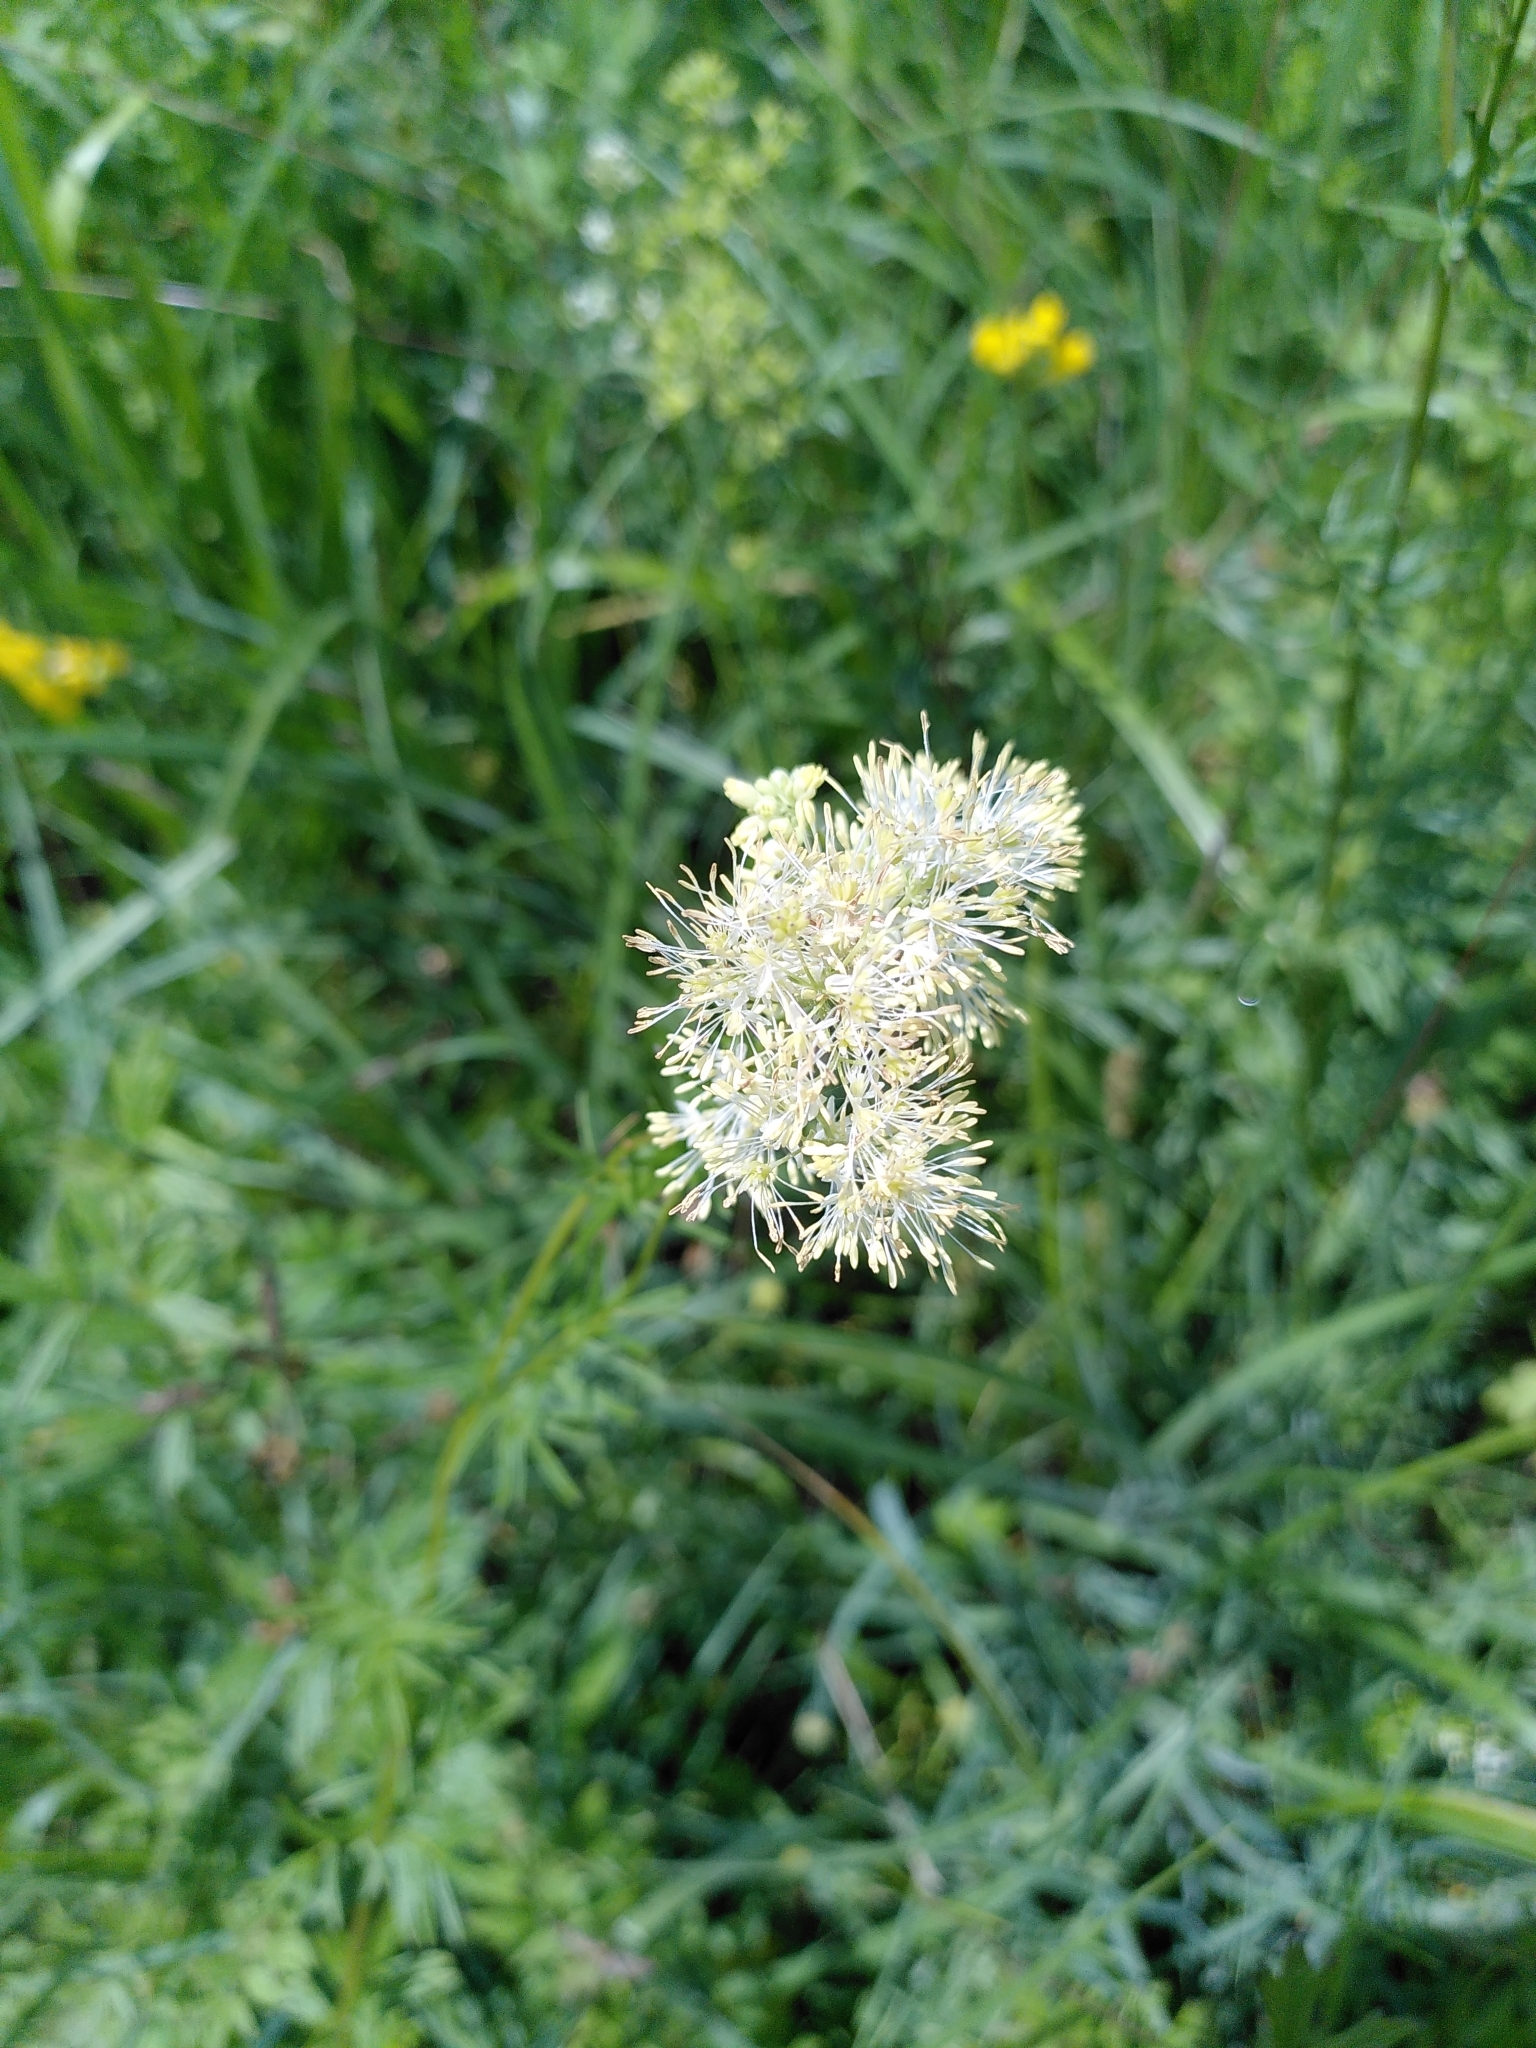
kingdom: Plantae
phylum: Tracheophyta
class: Magnoliopsida
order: Ranunculales
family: Ranunculaceae
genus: Thalictrum
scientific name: Thalictrum lucidum
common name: Shining meadow-rue
